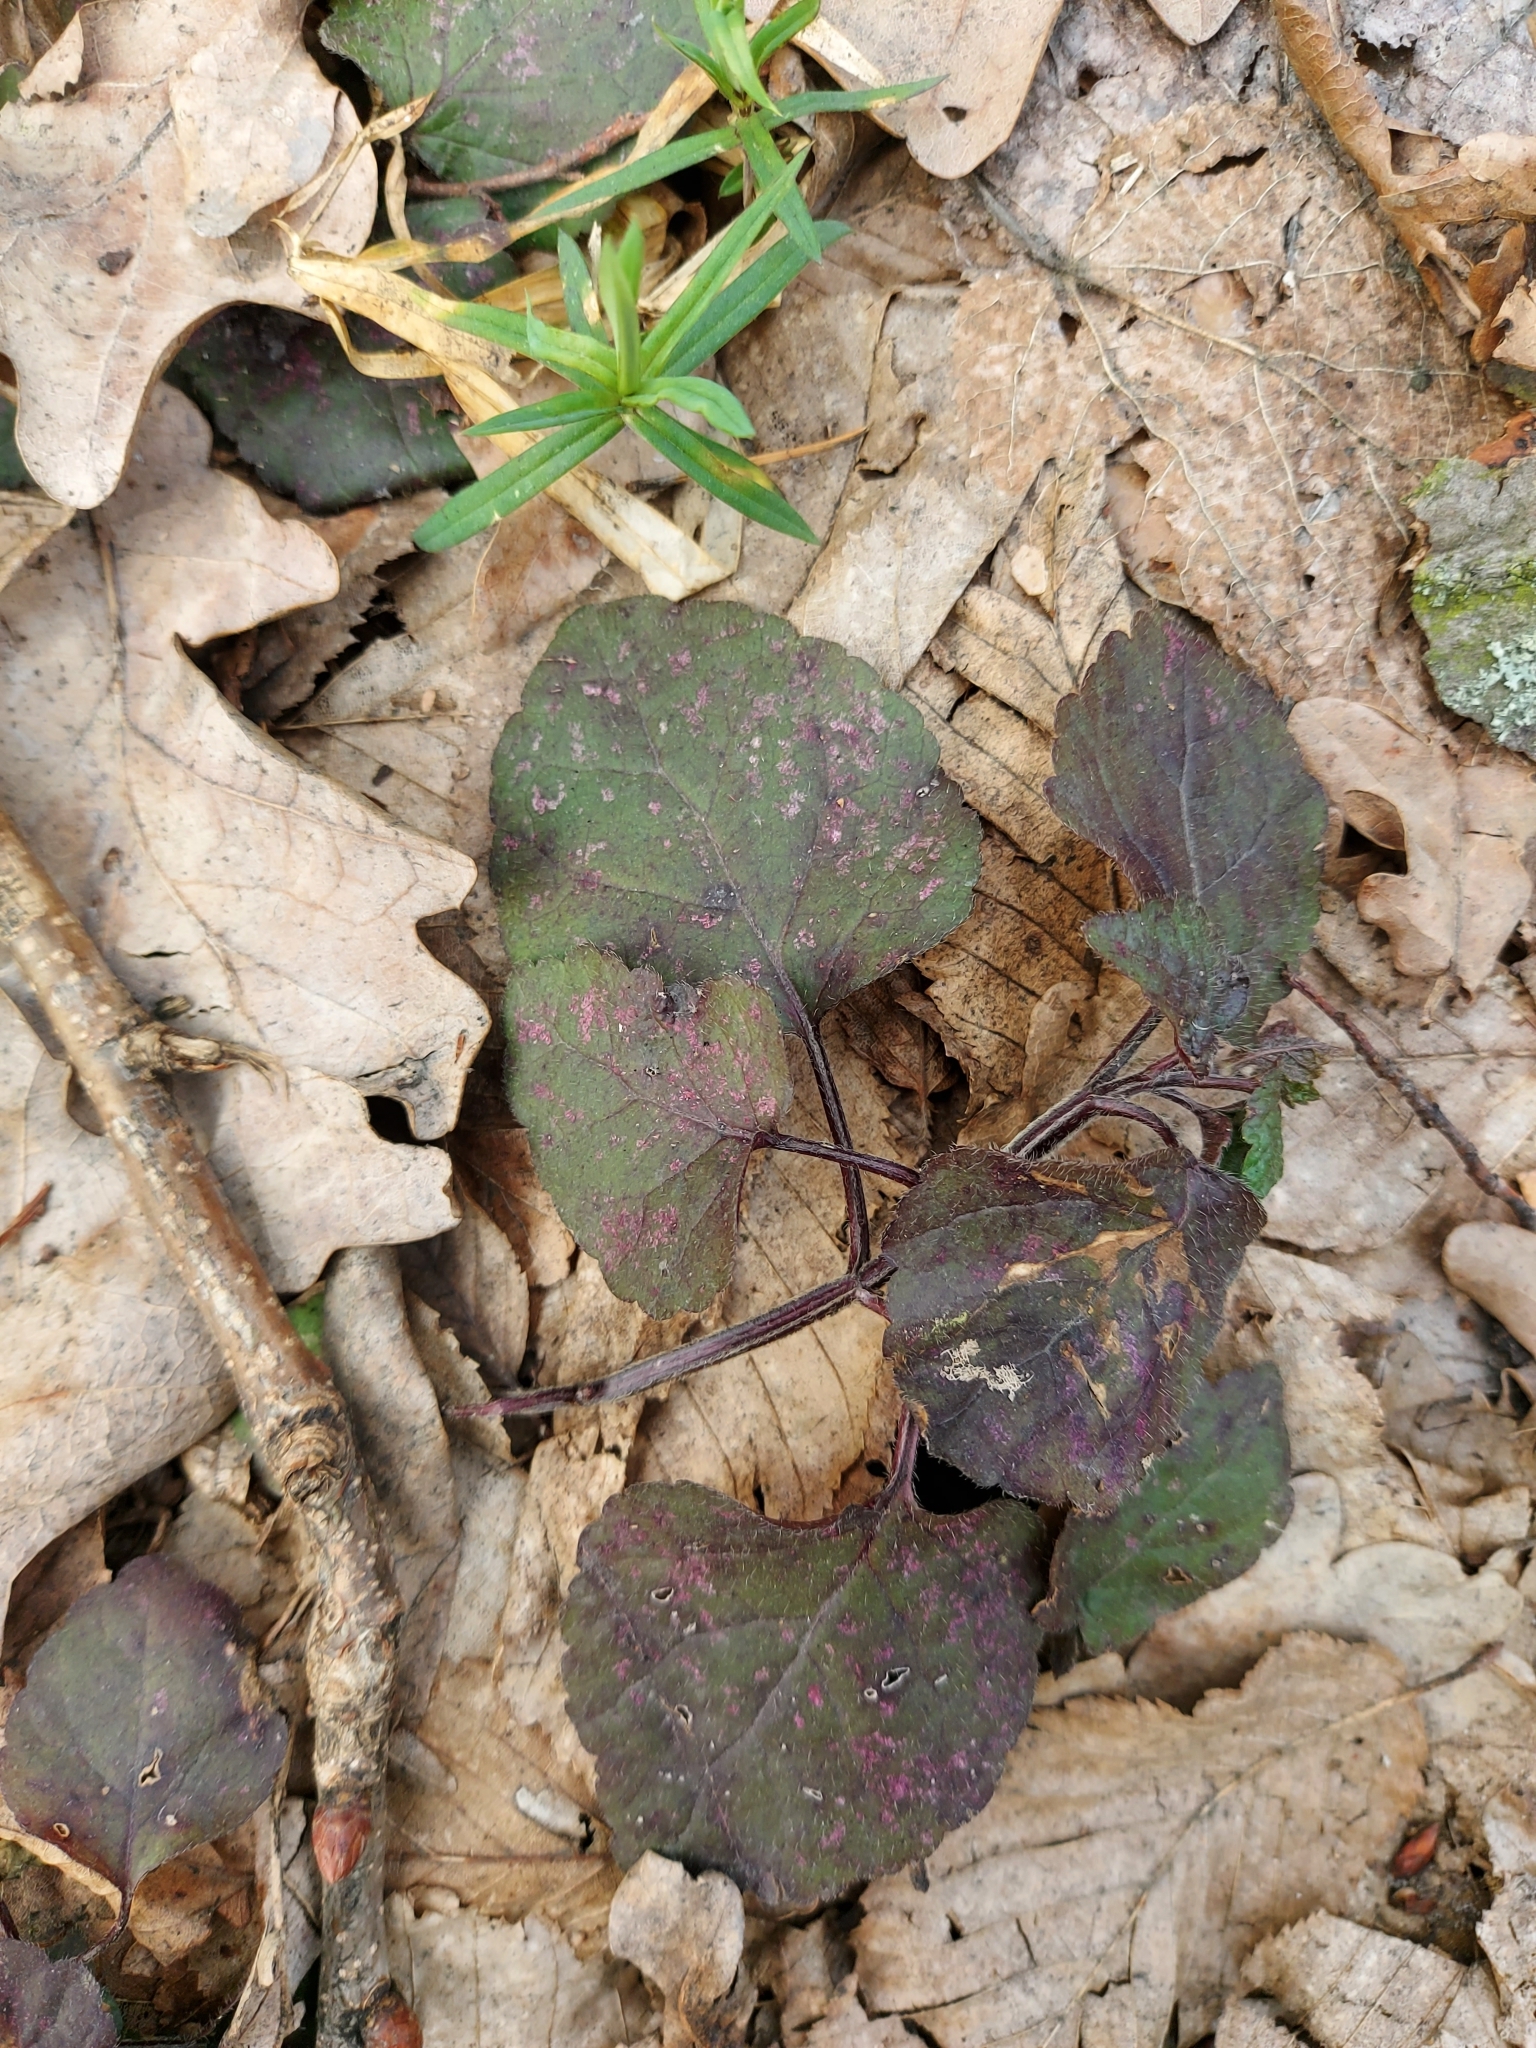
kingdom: Plantae
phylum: Tracheophyta
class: Magnoliopsida
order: Lamiales
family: Lamiaceae
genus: Lamium
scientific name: Lamium galeobdolon
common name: Yellow archangel
